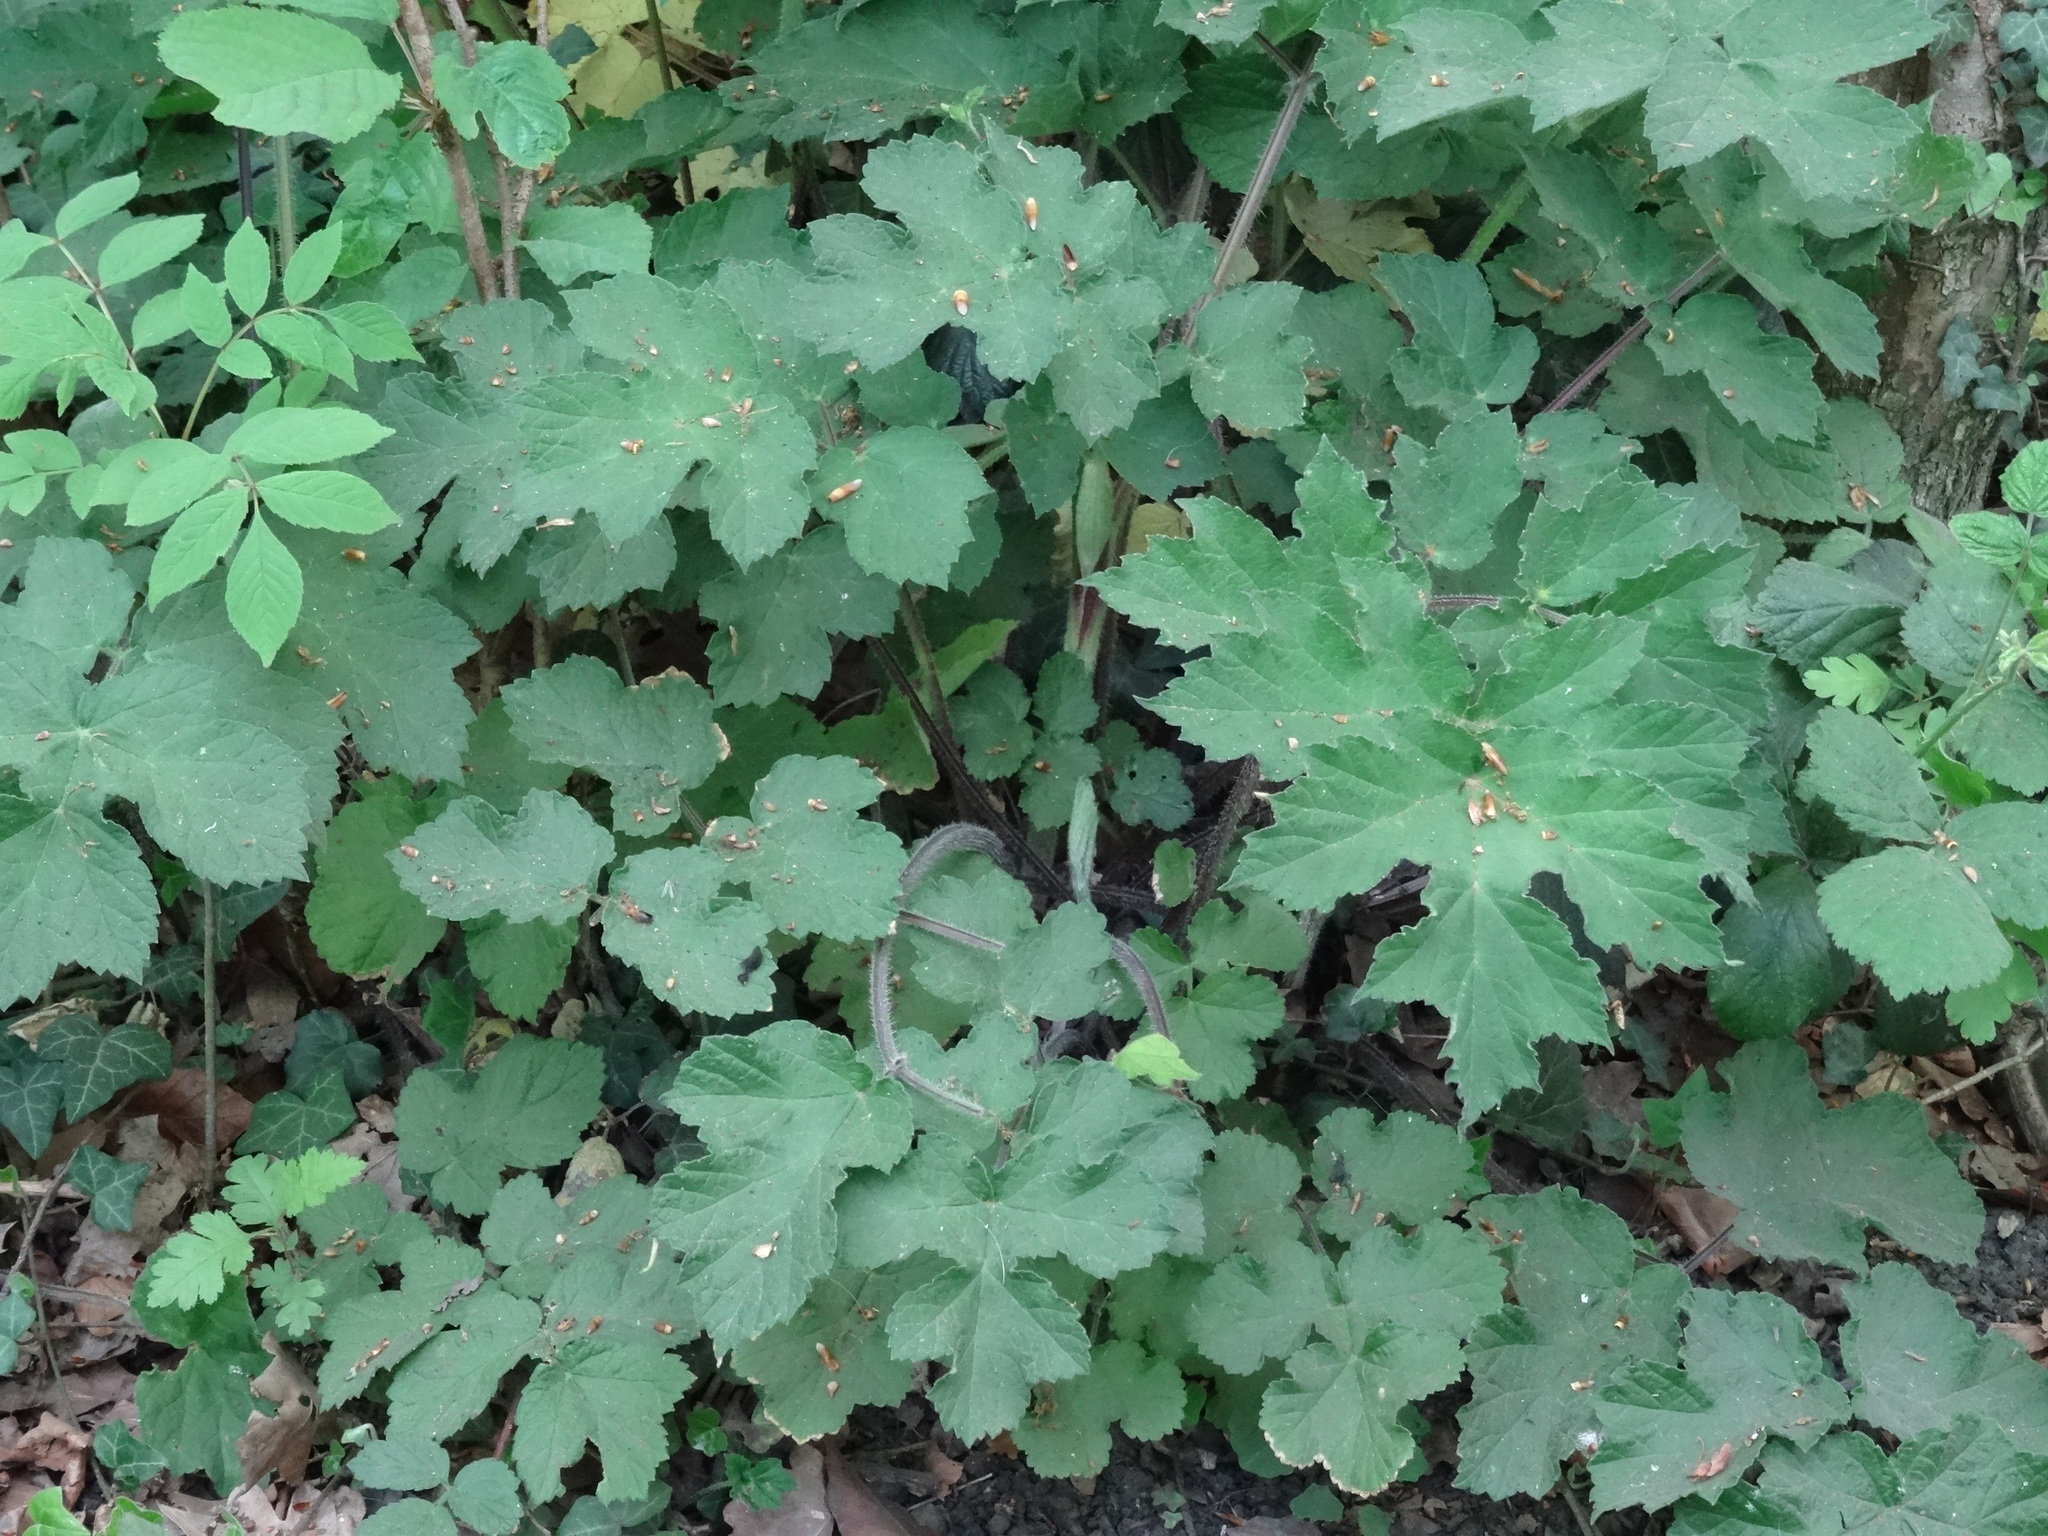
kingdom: Plantae
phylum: Tracheophyta
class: Magnoliopsida
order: Apiales
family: Apiaceae
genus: Heracleum
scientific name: Heracleum sphondylium
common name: Hogweed
